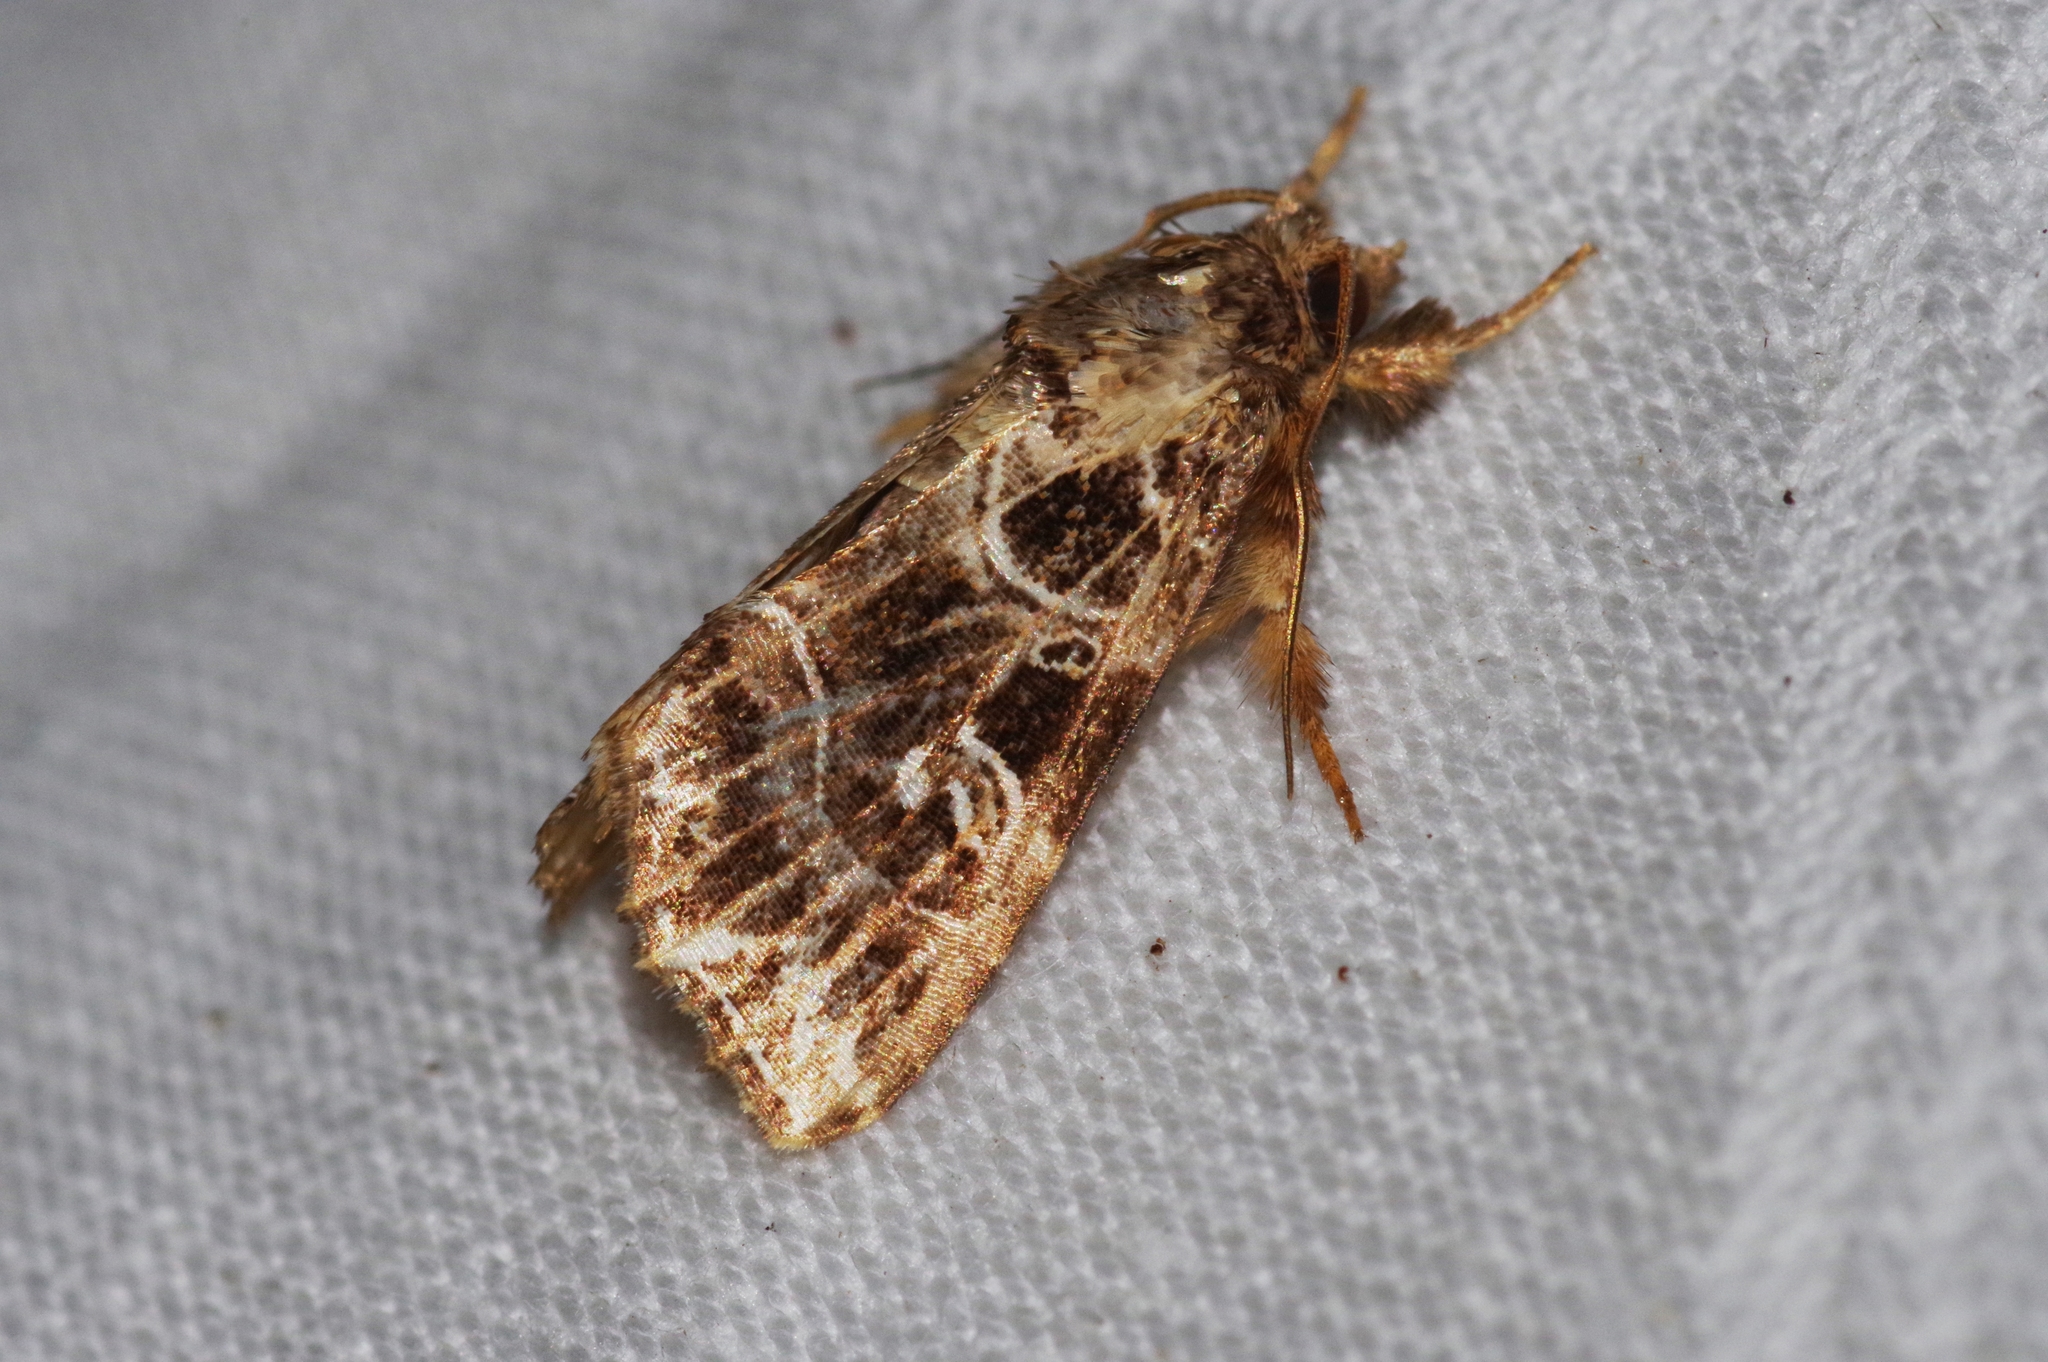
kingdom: Animalia
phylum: Arthropoda
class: Insecta
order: Lepidoptera
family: Noctuidae
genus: Callopistria
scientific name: Callopistria duplicans
